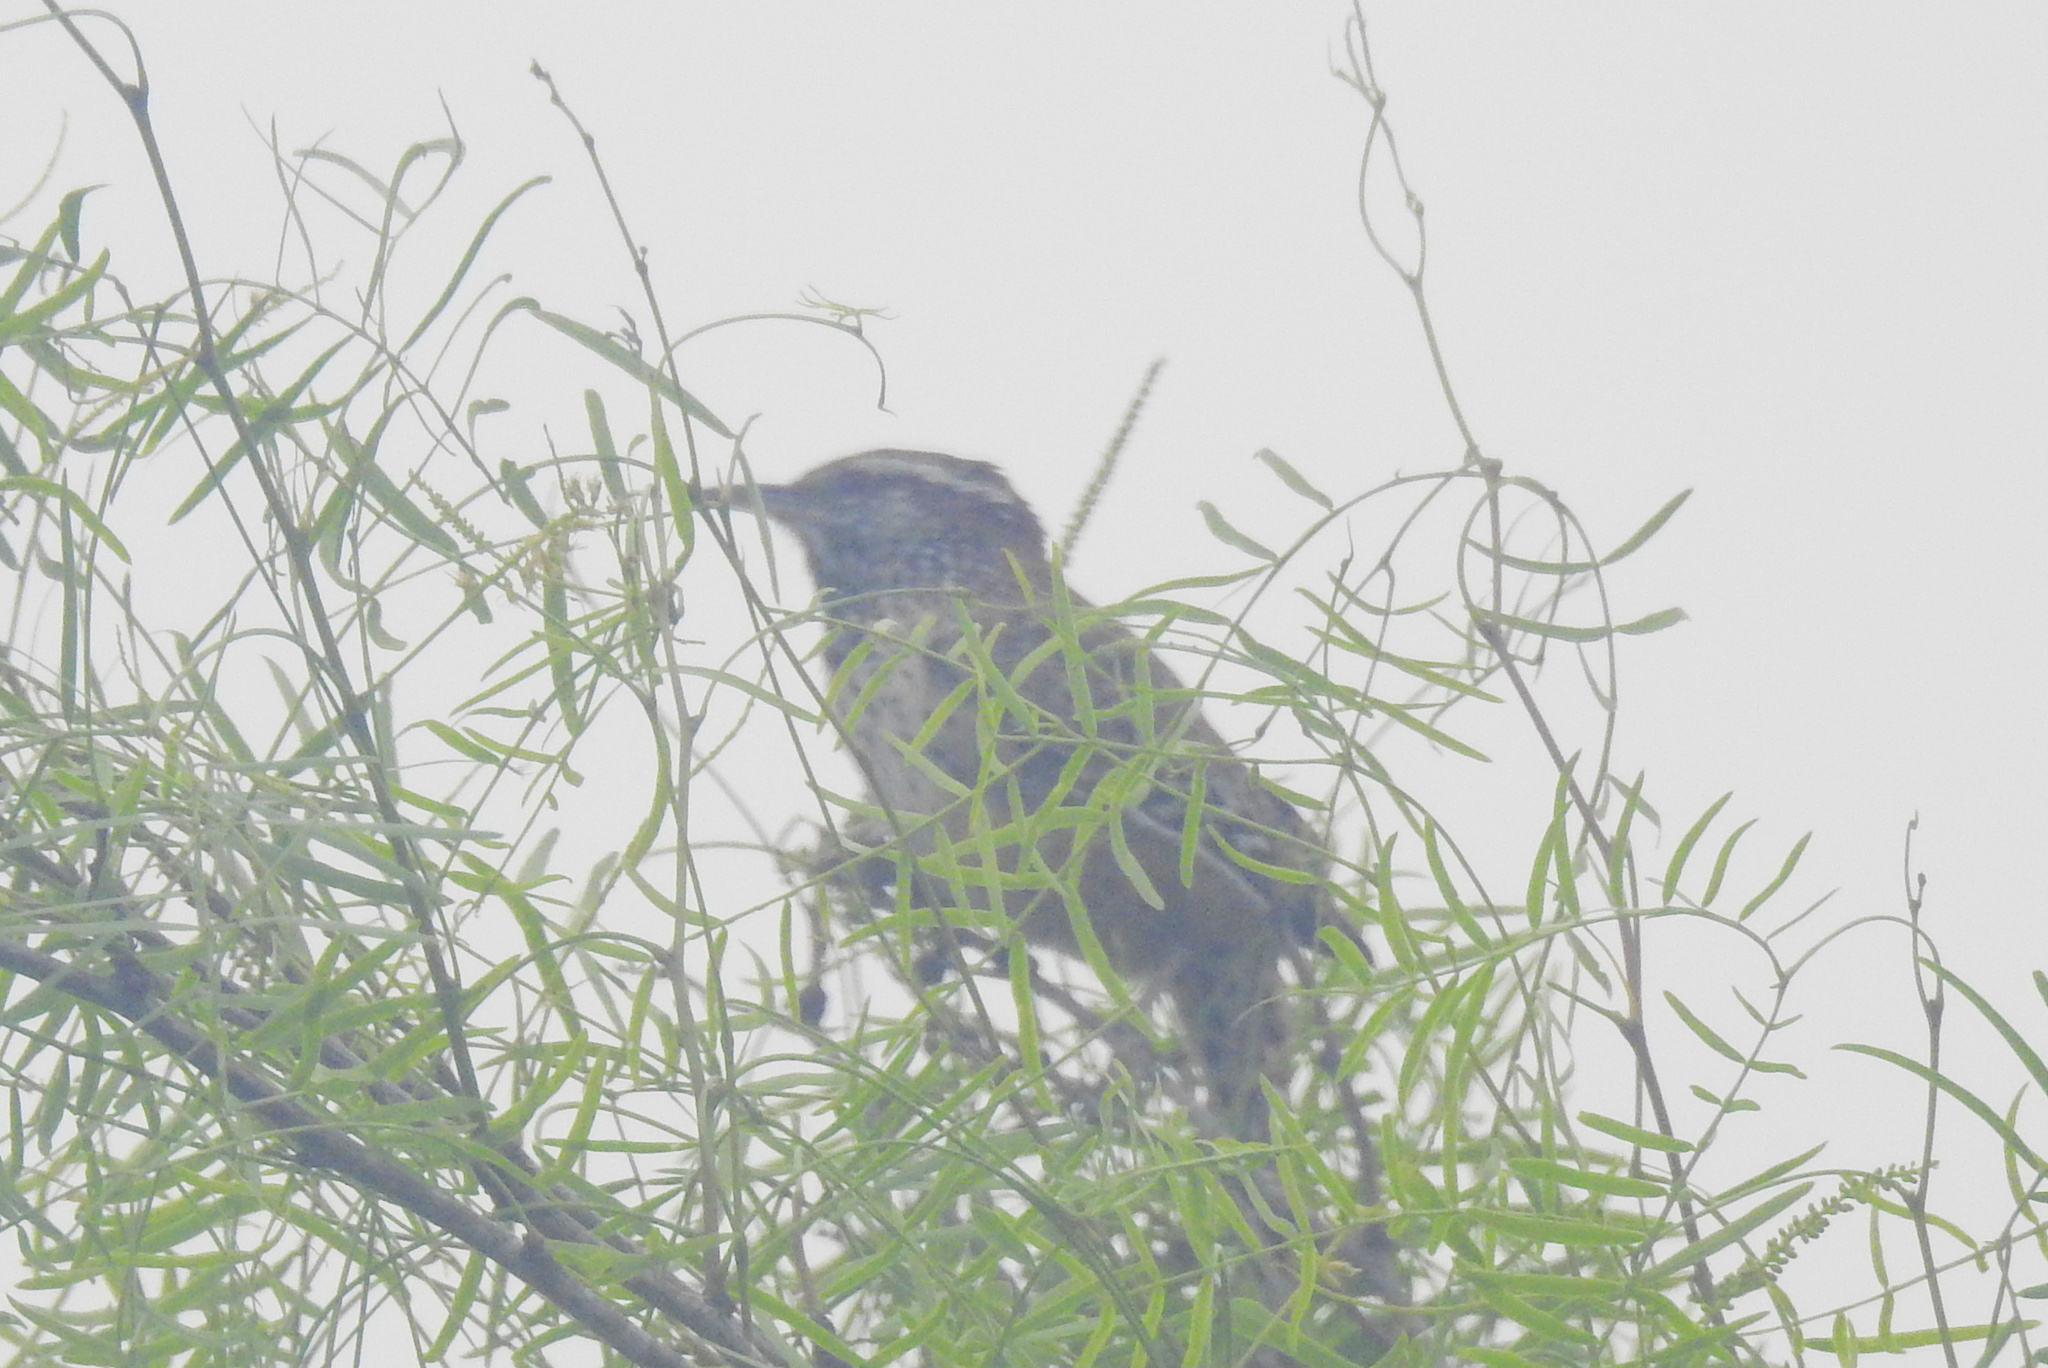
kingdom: Animalia
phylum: Chordata
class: Aves
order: Passeriformes
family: Troglodytidae
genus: Campylorhynchus
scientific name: Campylorhynchus brunneicapillus
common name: Cactus wren
